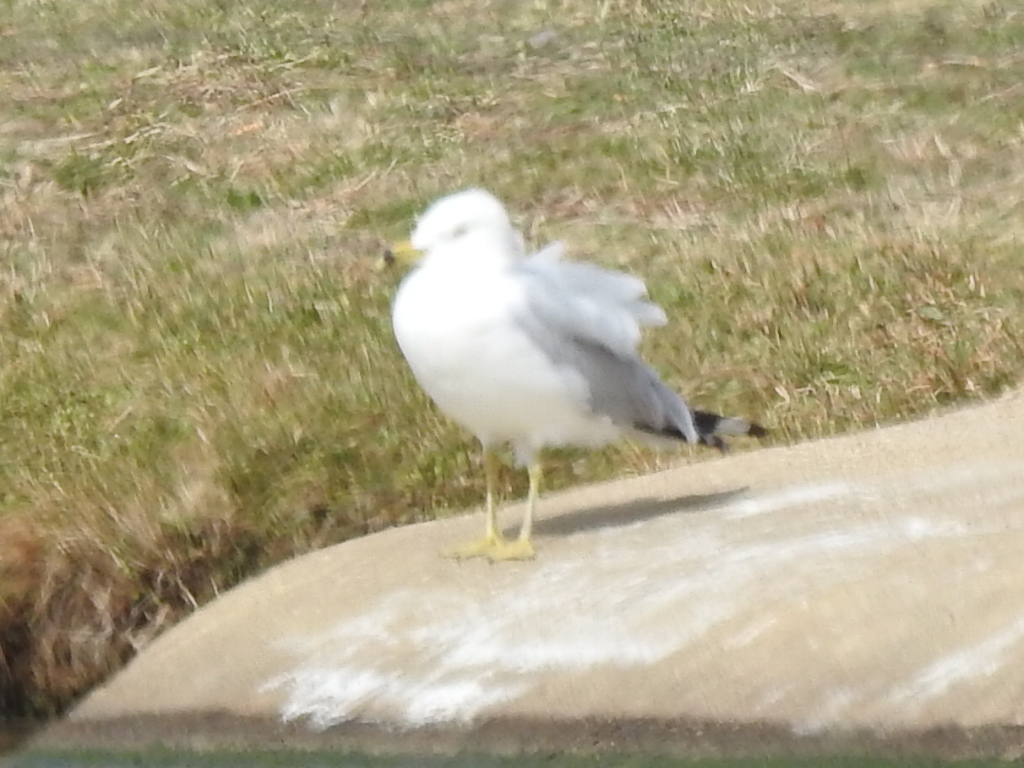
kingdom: Animalia
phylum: Chordata
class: Aves
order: Charadriiformes
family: Laridae
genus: Larus
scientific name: Larus delawarensis
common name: Ring-billed gull
